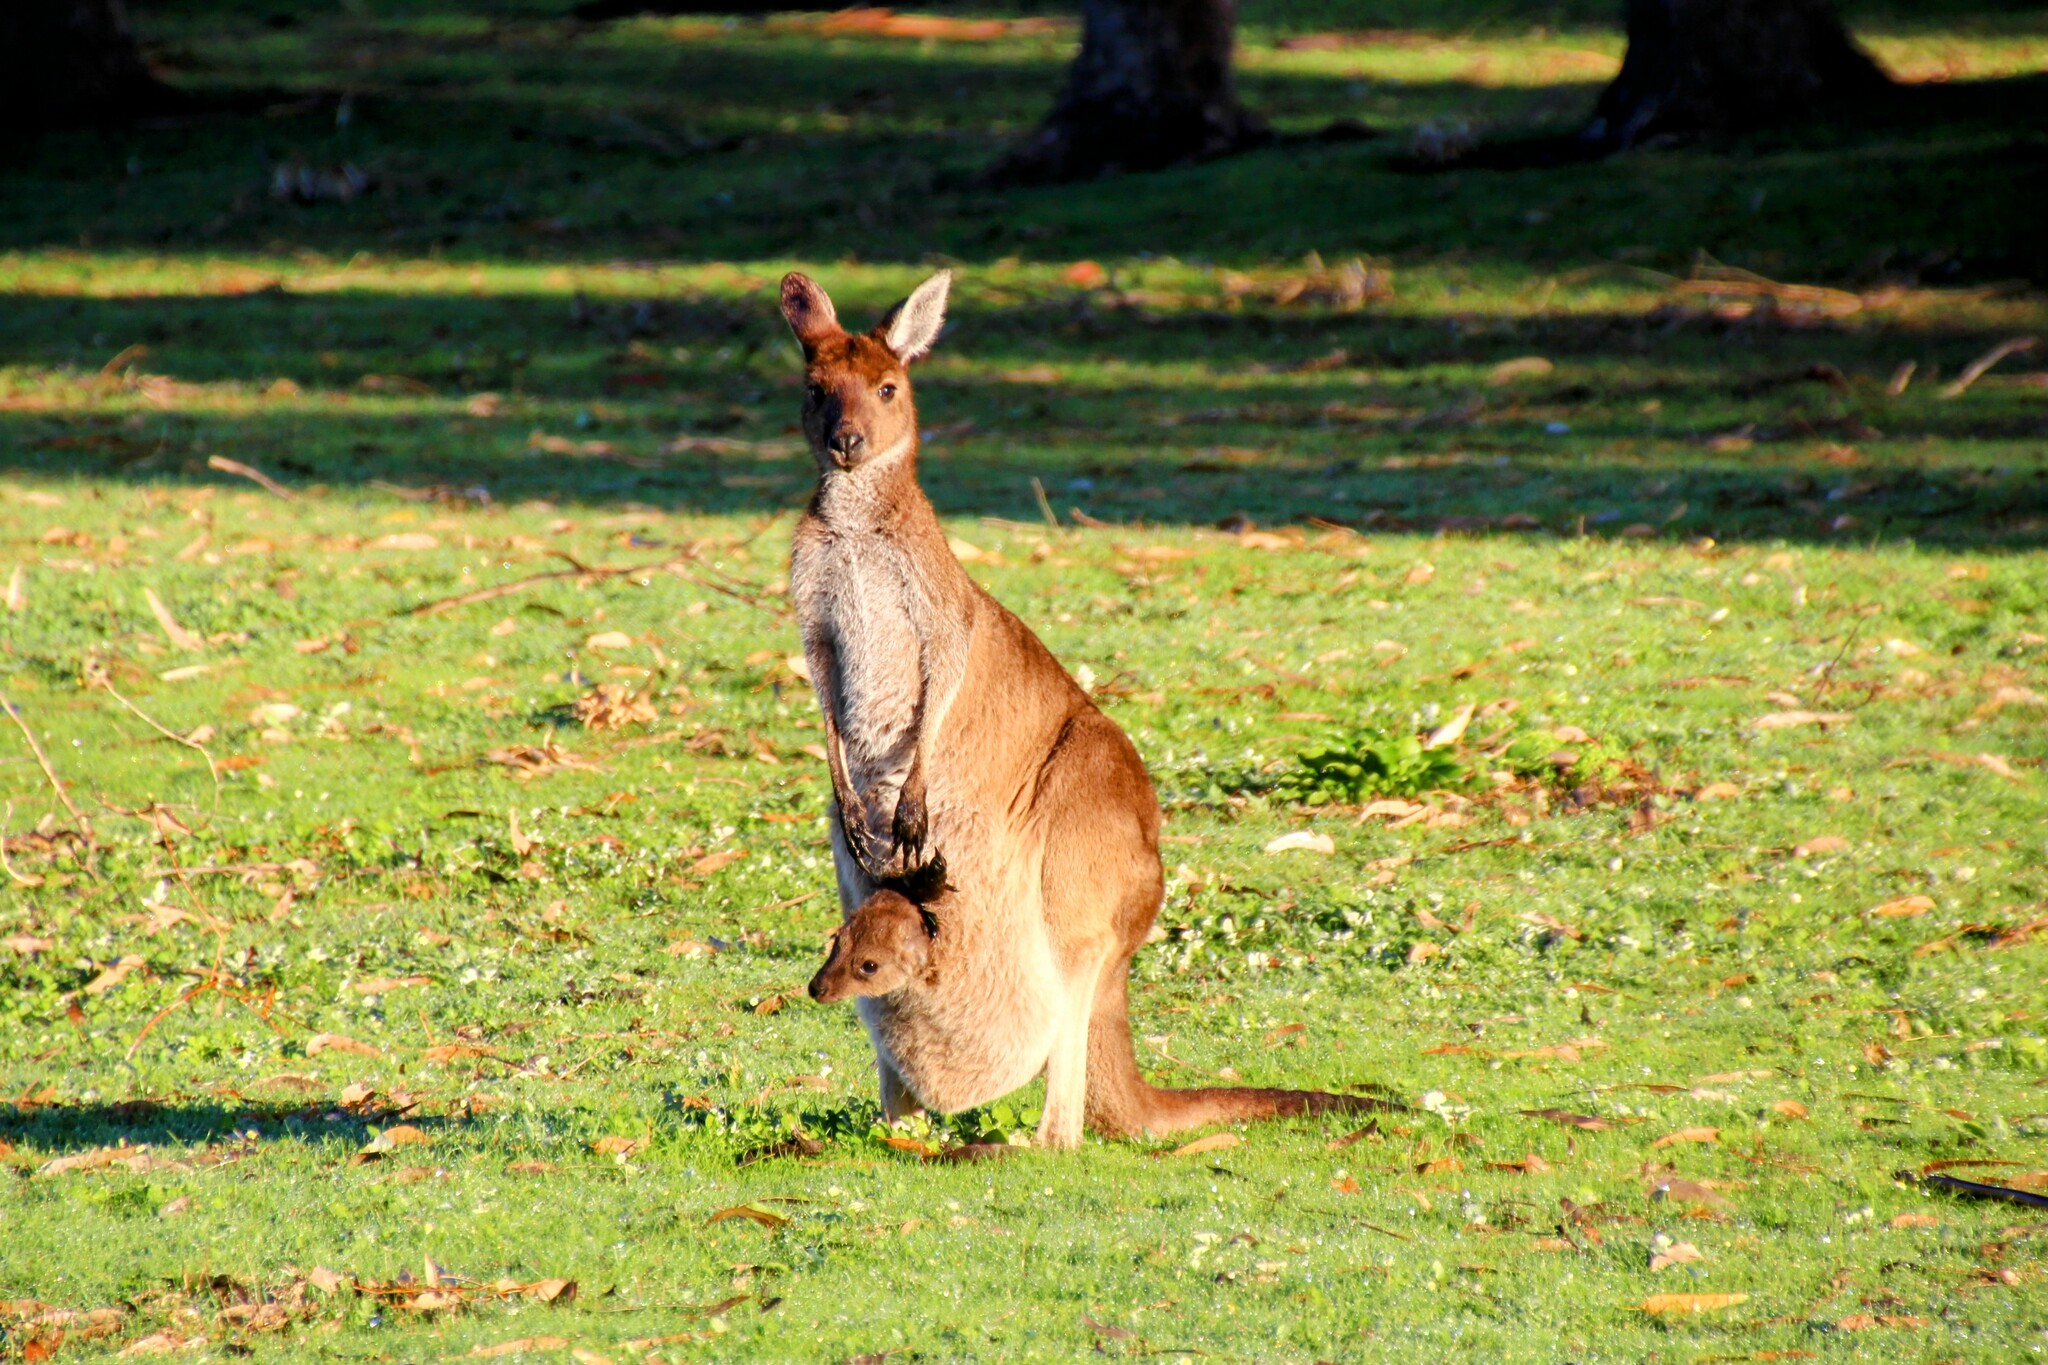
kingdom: Animalia
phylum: Chordata
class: Mammalia
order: Diprotodontia
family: Macropodidae
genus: Macropus
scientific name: Macropus fuliginosus
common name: Western grey kangaroo
